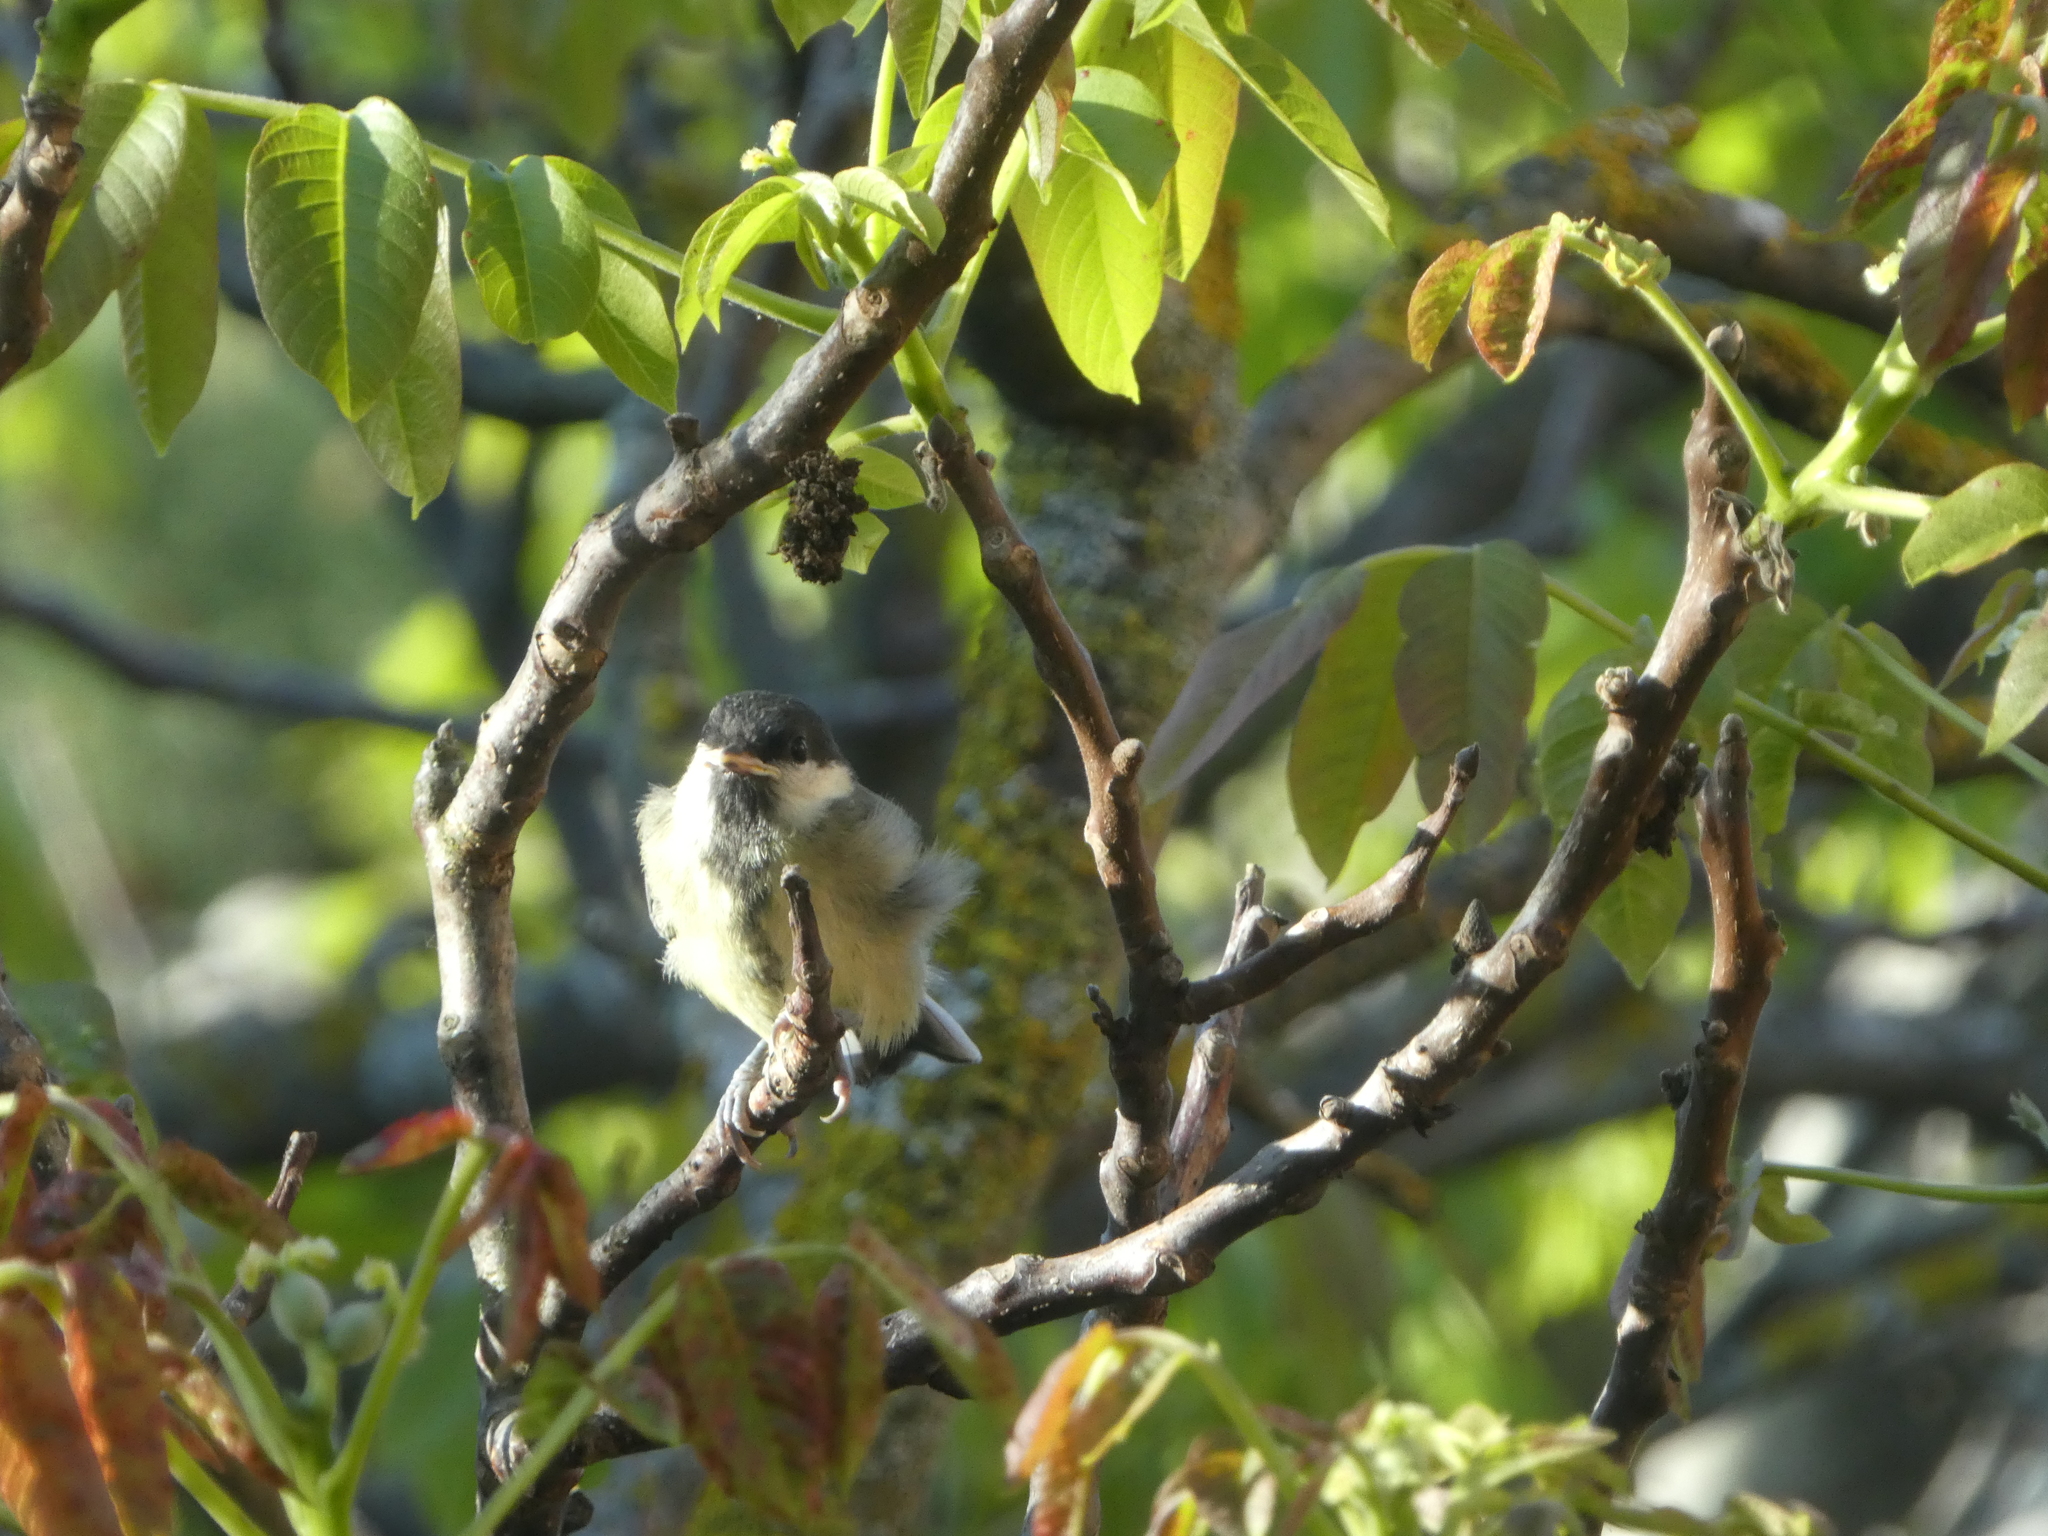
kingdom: Animalia
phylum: Chordata
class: Aves
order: Passeriformes
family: Paridae
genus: Parus
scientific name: Parus major
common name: Great tit
